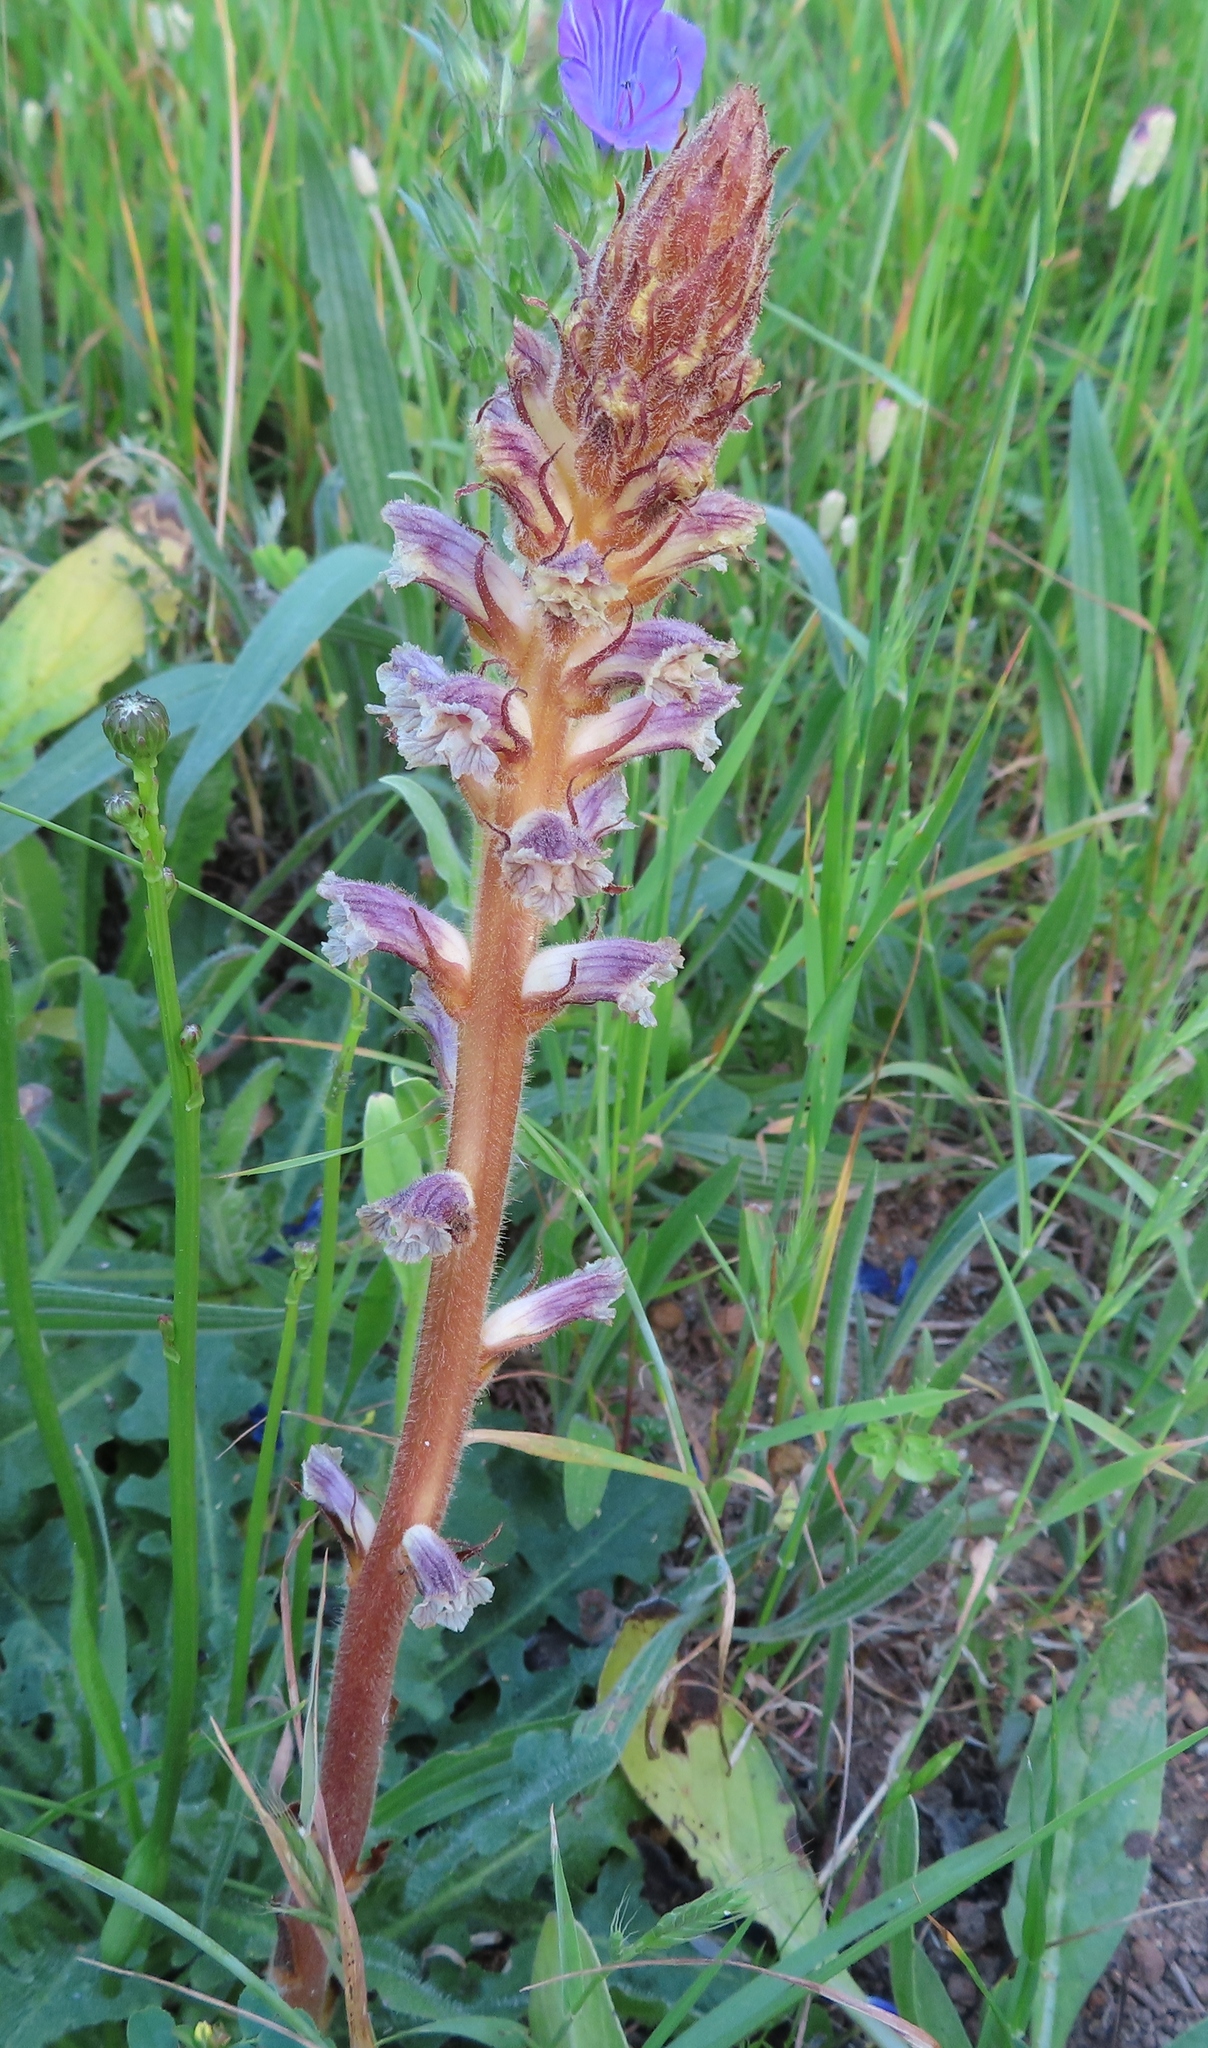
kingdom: Plantae
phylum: Tracheophyta
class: Magnoliopsida
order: Lamiales
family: Orobanchaceae
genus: Orobanche
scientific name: Orobanche minor
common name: Common broomrape
